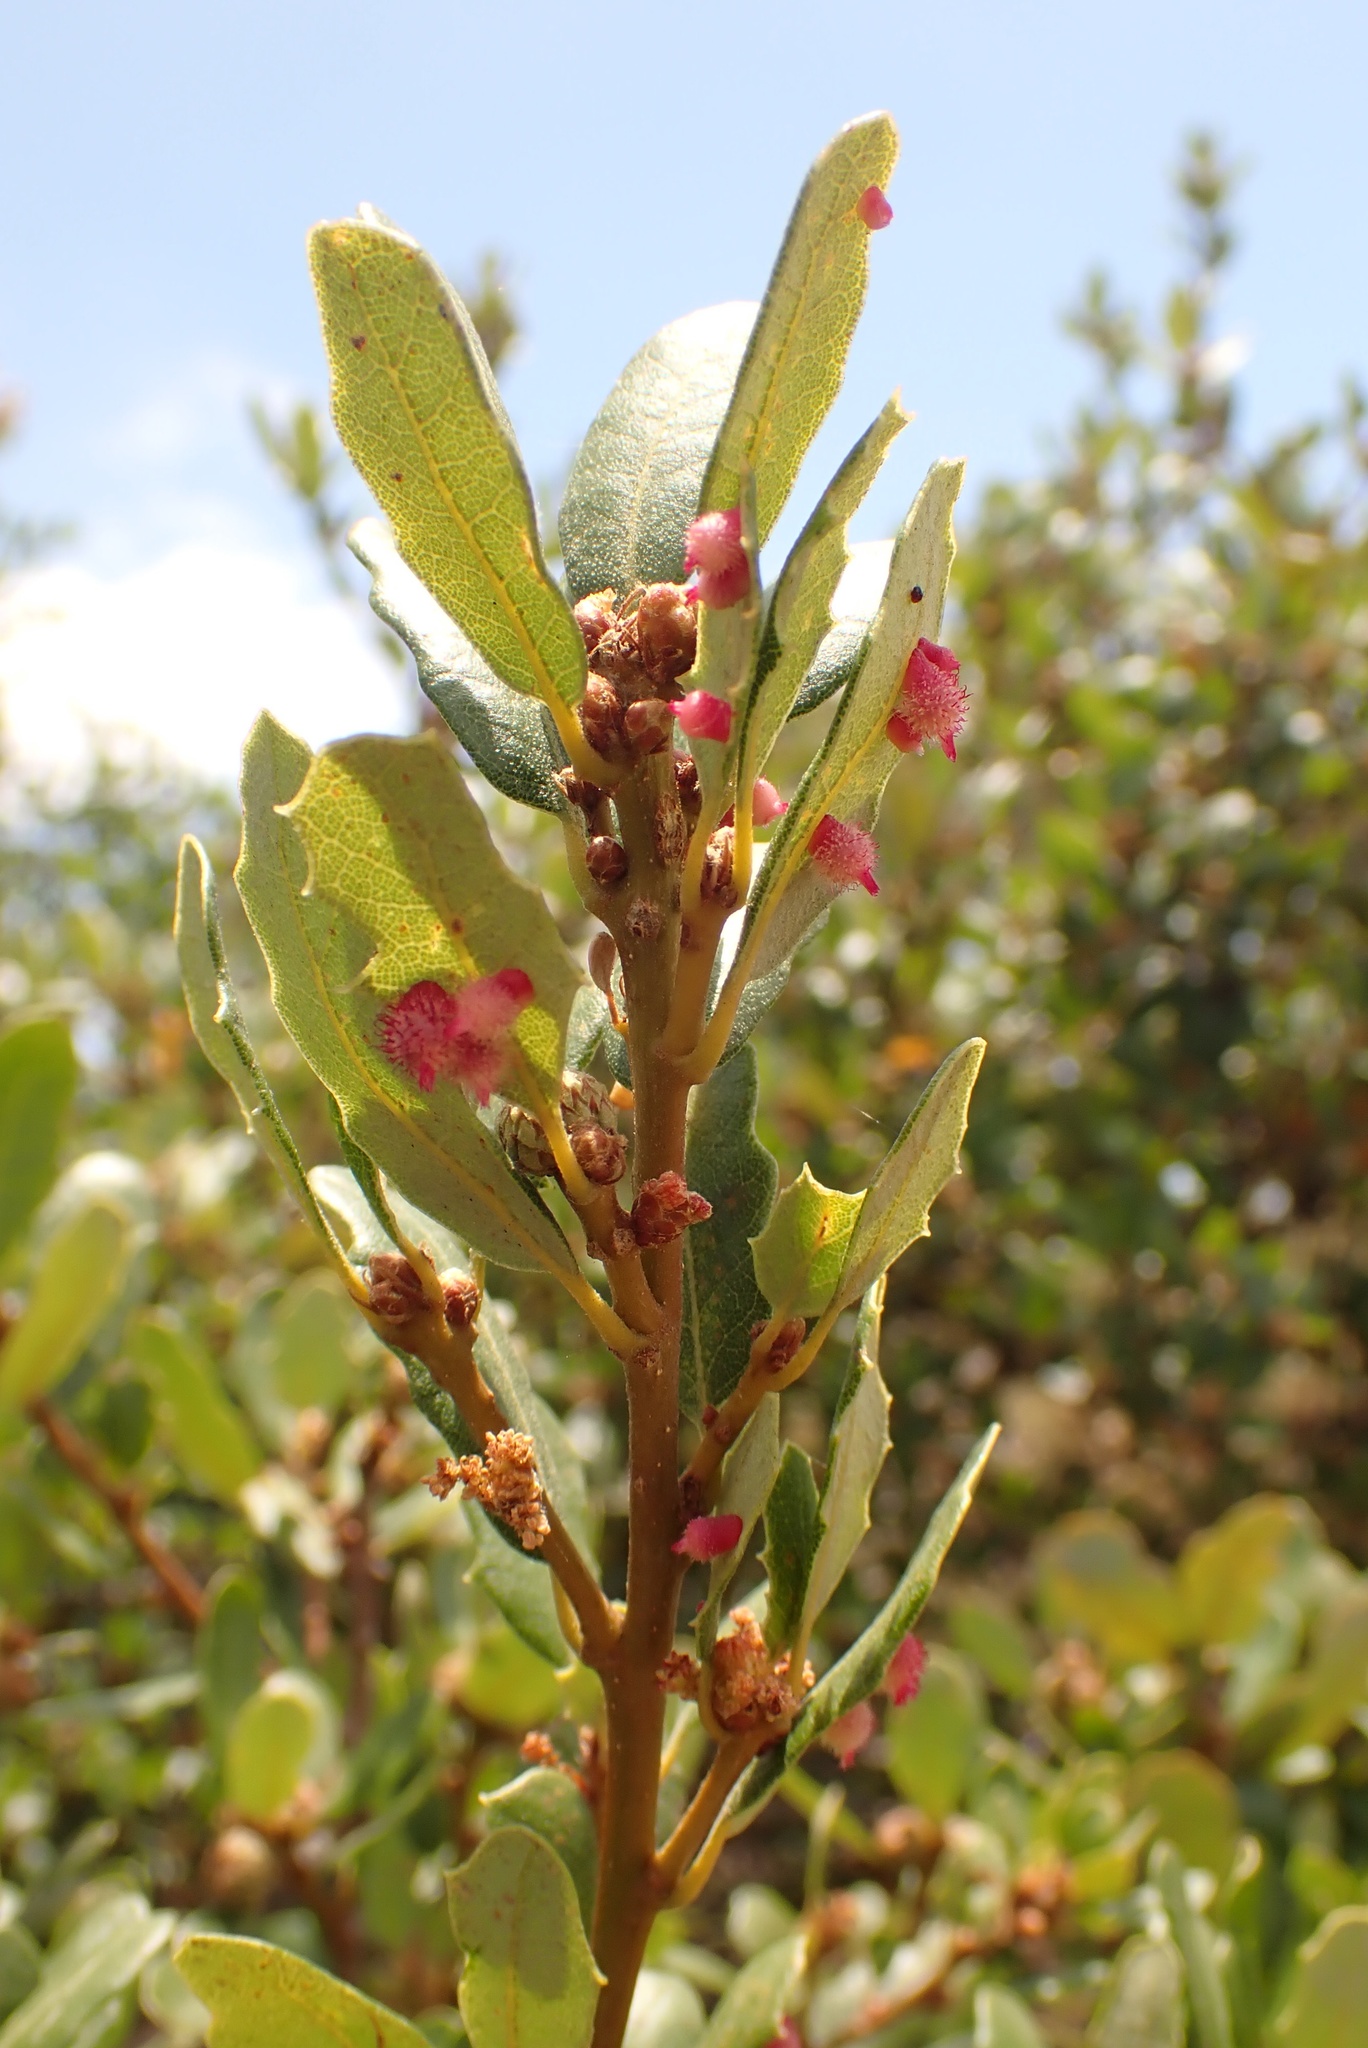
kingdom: Animalia
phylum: Arthropoda
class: Insecta
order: Hymenoptera
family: Cynipidae
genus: Andricus
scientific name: Andricus
